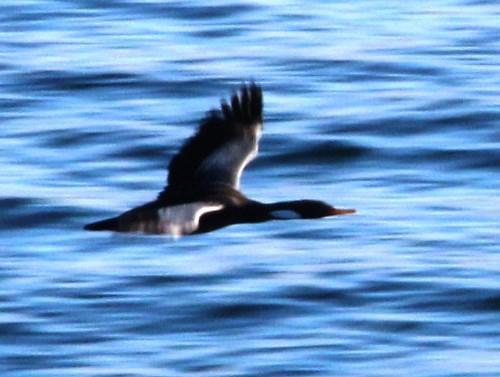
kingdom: Animalia
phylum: Chordata
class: Aves
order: Suliformes
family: Phalacrocoracidae
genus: Phalacrocorax
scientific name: Phalacrocorax gaimardi
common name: Red-legged cormorant
